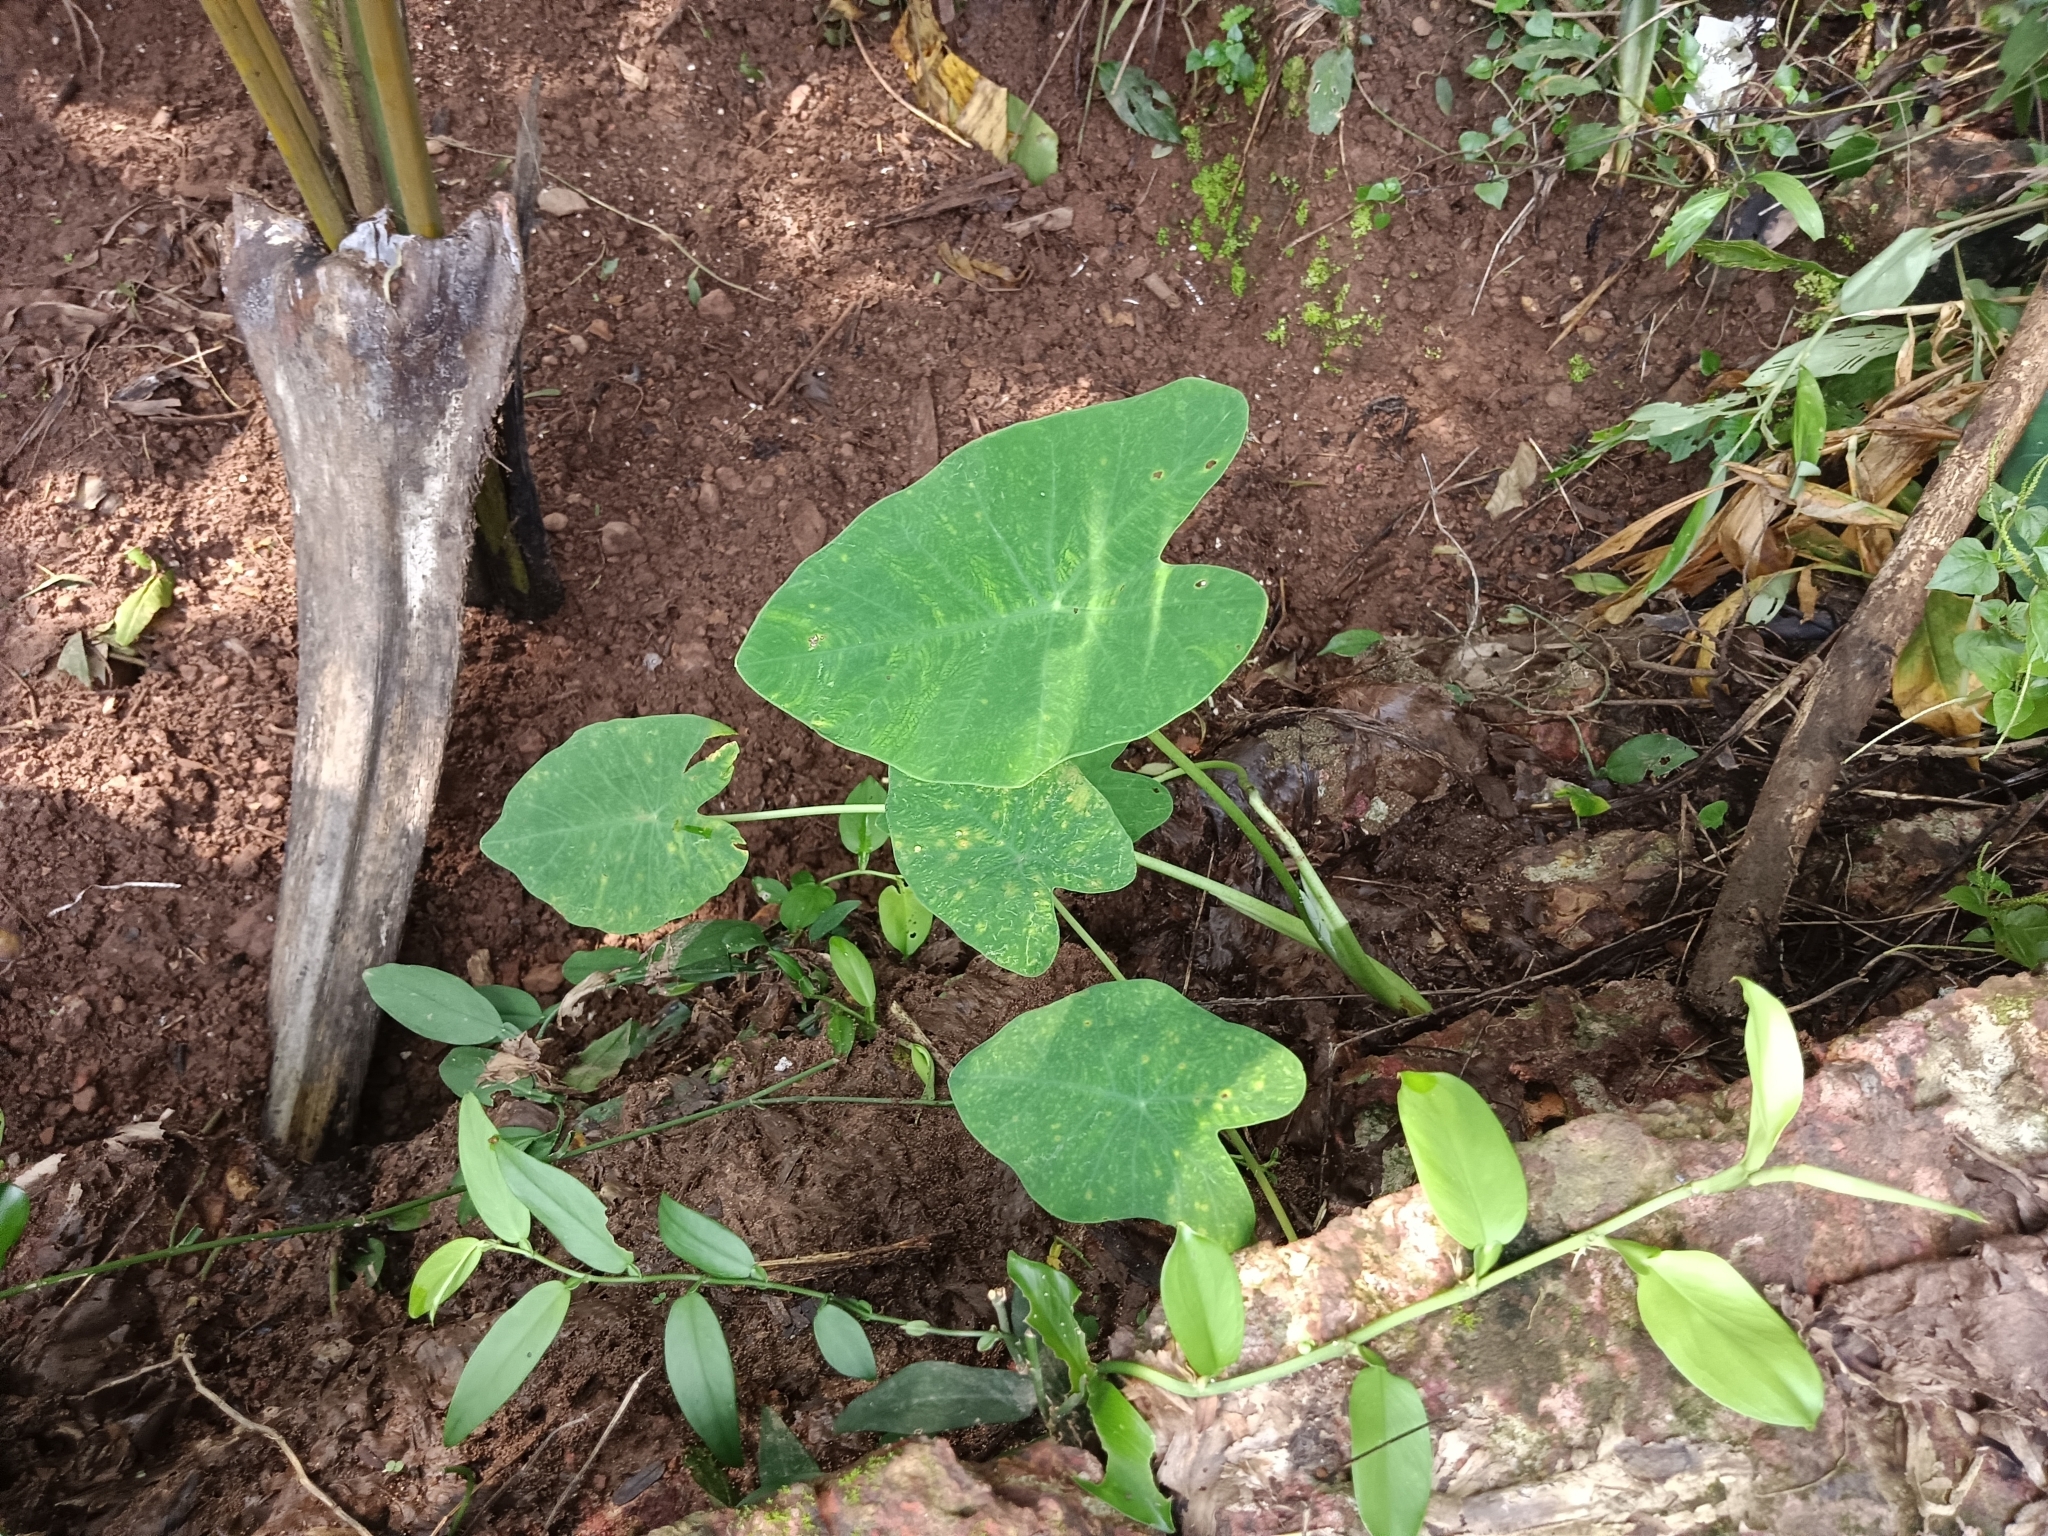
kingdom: Plantae
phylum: Tracheophyta
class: Liliopsida
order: Alismatales
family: Araceae
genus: Colocasia
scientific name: Colocasia esculenta
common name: Taro
